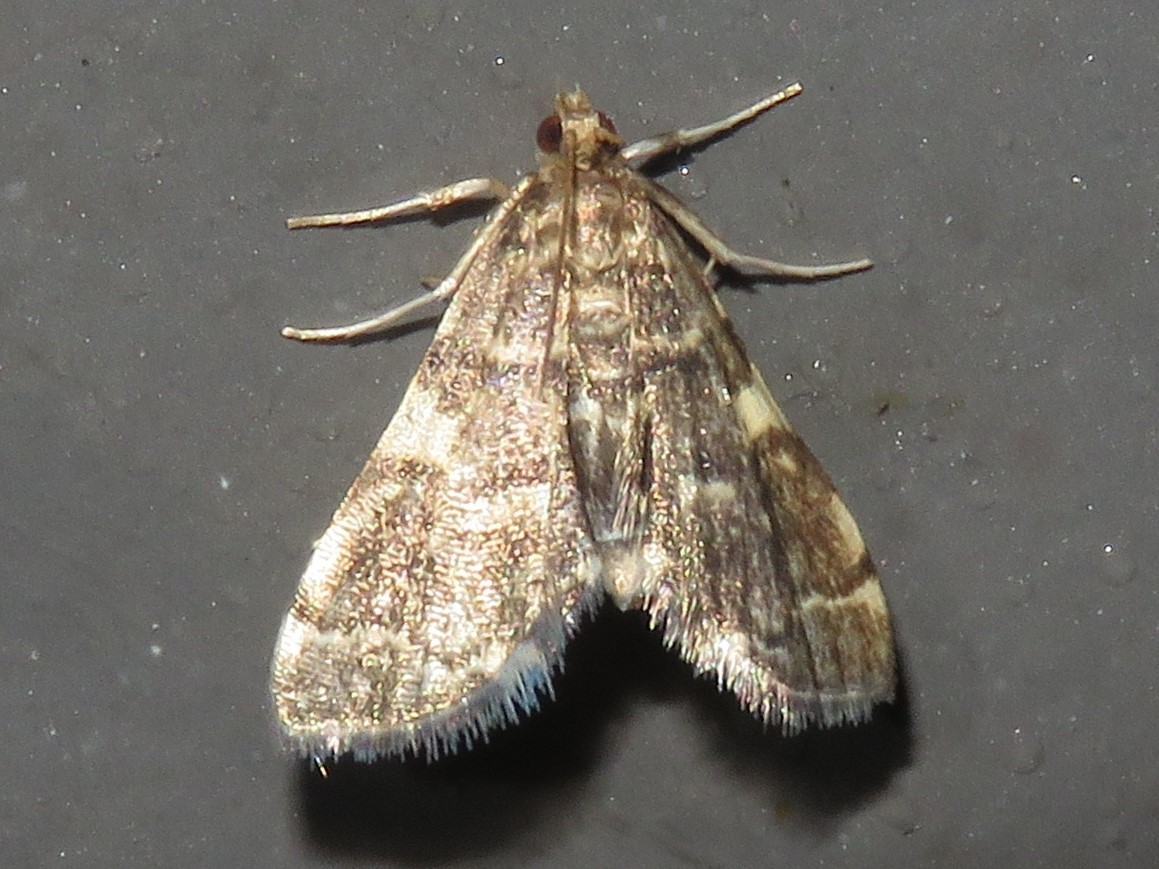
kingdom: Animalia
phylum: Arthropoda
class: Insecta
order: Lepidoptera
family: Crambidae
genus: Anageshna
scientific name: Anageshna primordialis
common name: Yellow-spotted webworm moth
